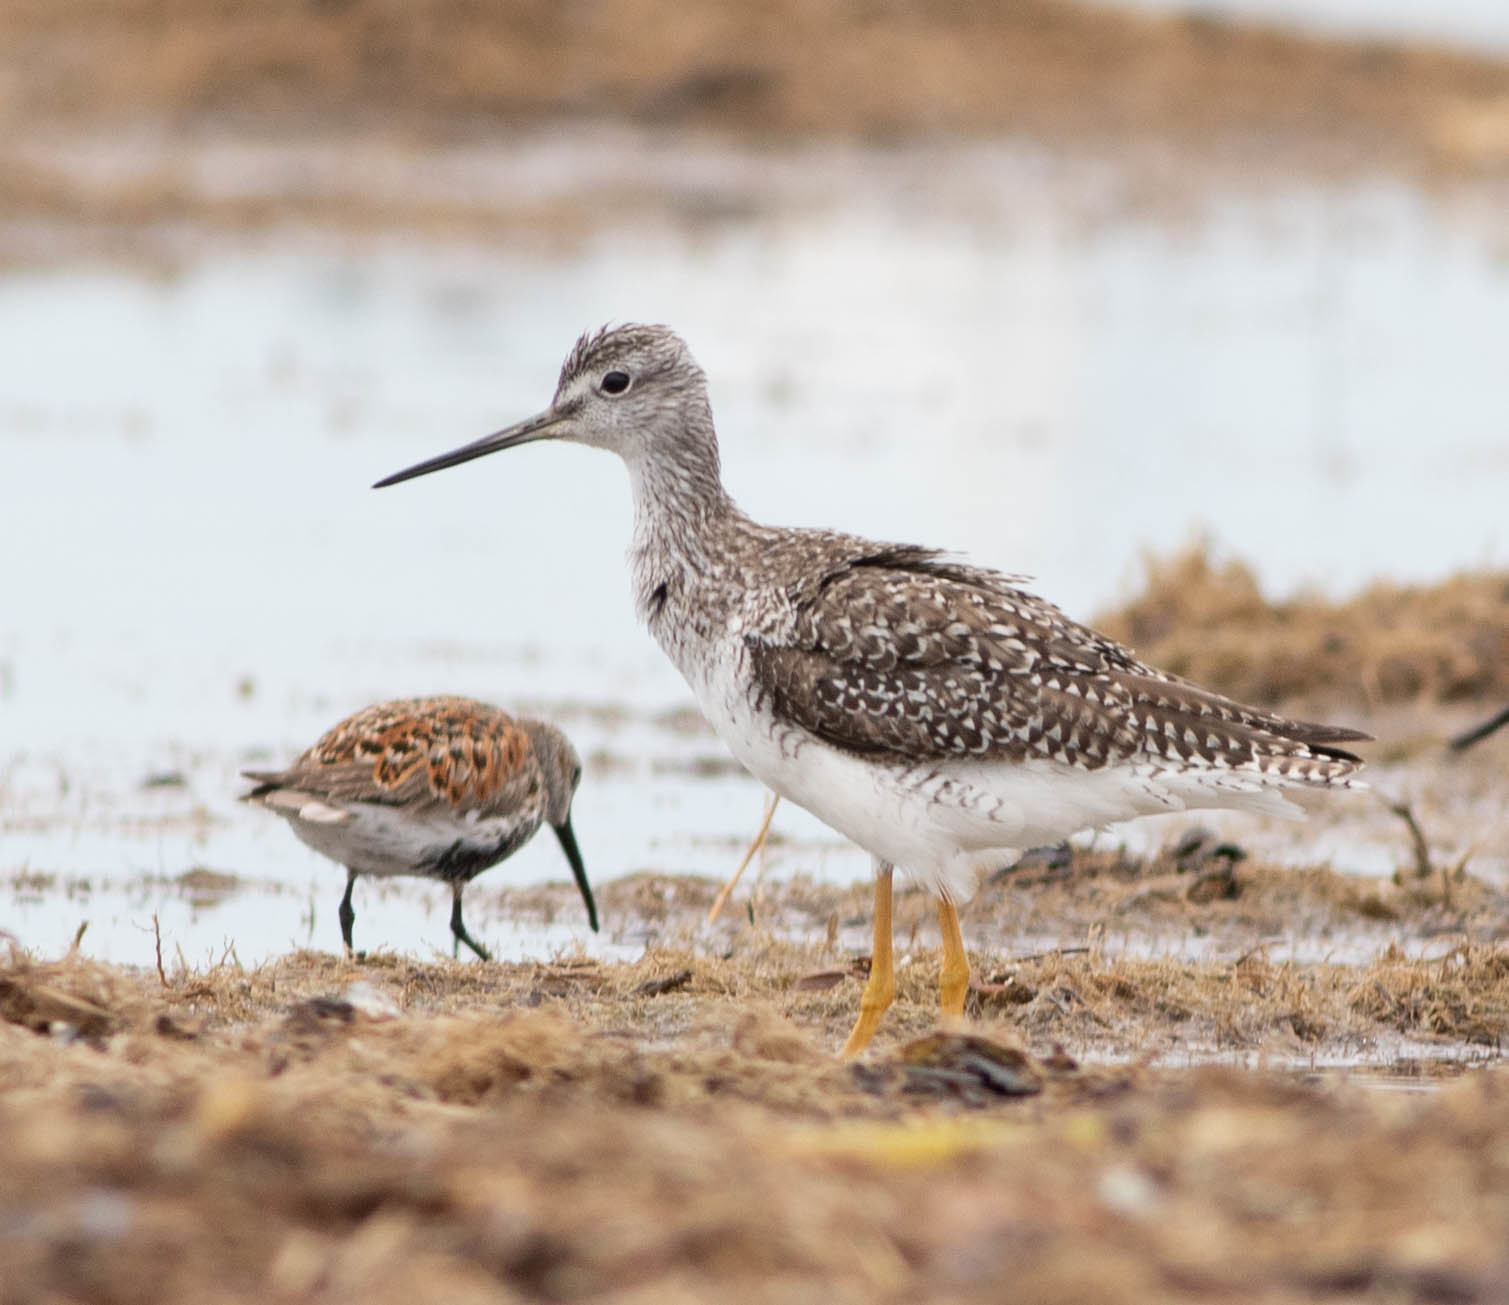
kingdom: Animalia
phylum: Chordata
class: Aves
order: Charadriiformes
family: Scolopacidae
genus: Tringa
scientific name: Tringa melanoleuca
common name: Greater yellowlegs
